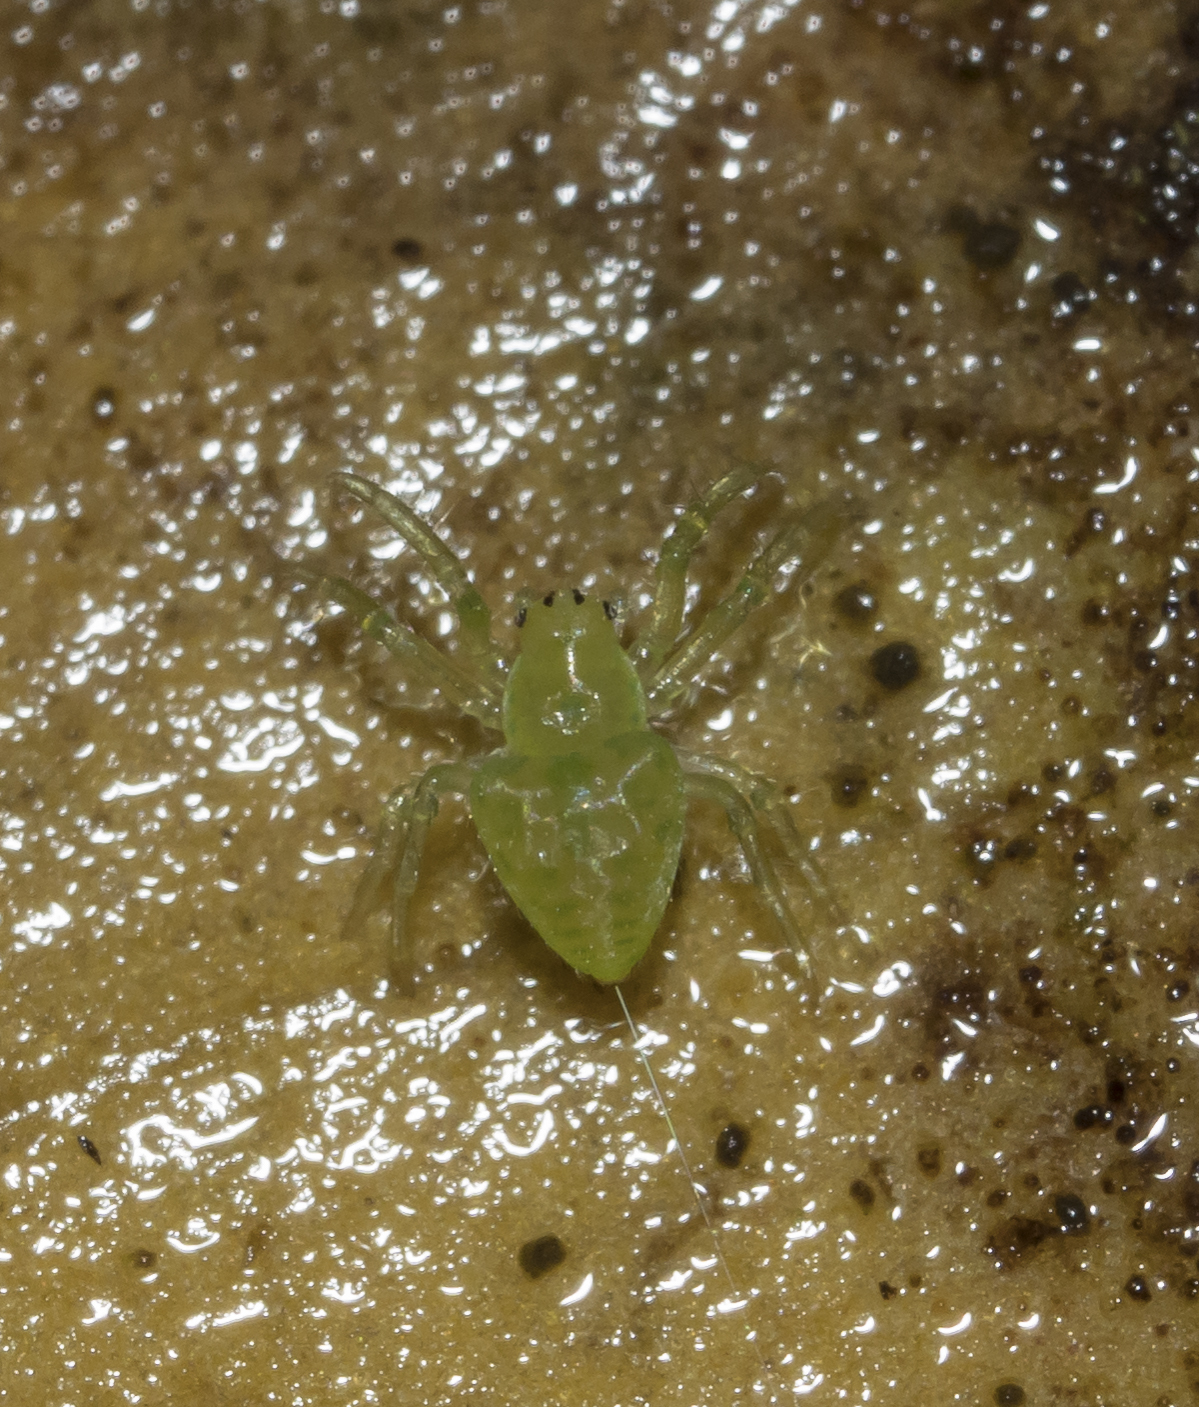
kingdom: Animalia
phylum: Arthropoda
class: Arachnida
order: Araneae
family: Araneidae
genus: Gnolus
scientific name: Gnolus cordiformis
